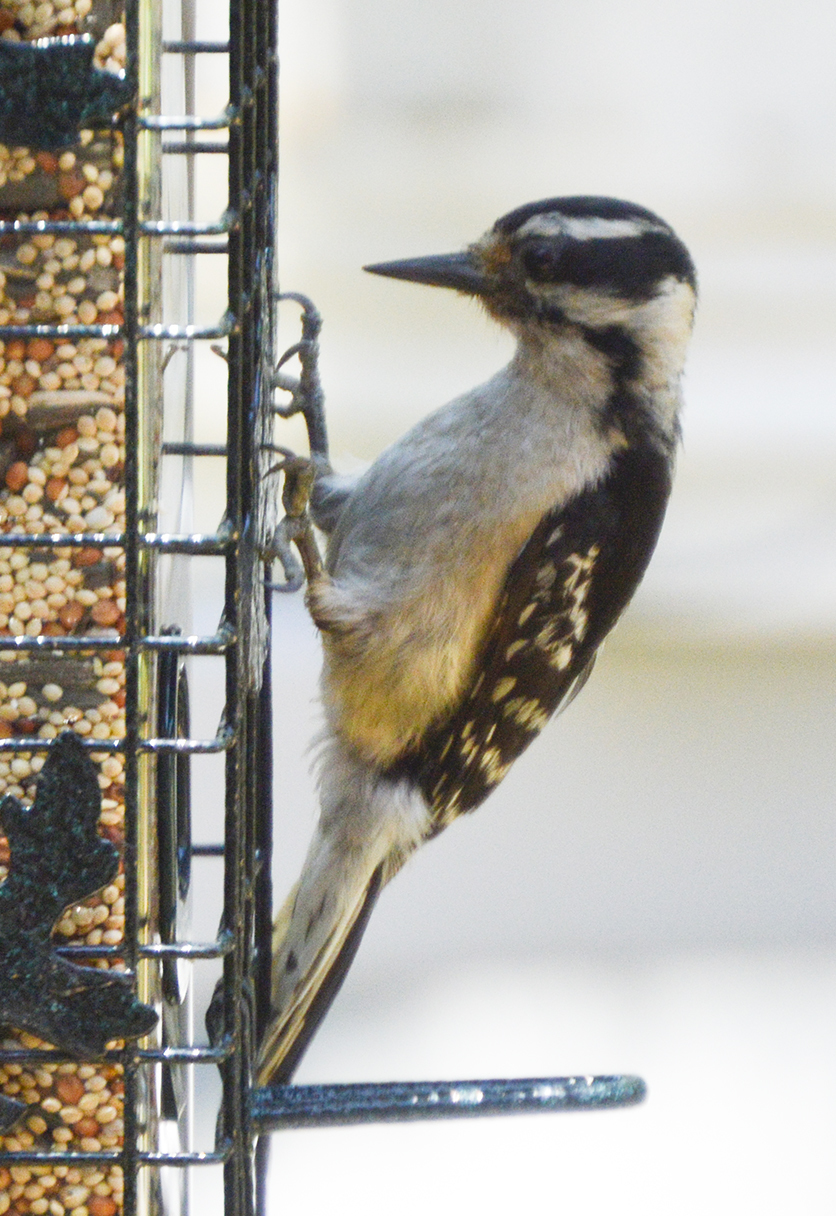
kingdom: Animalia
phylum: Chordata
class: Aves
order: Piciformes
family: Picidae
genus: Dryobates
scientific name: Dryobates pubescens
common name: Downy woodpecker
